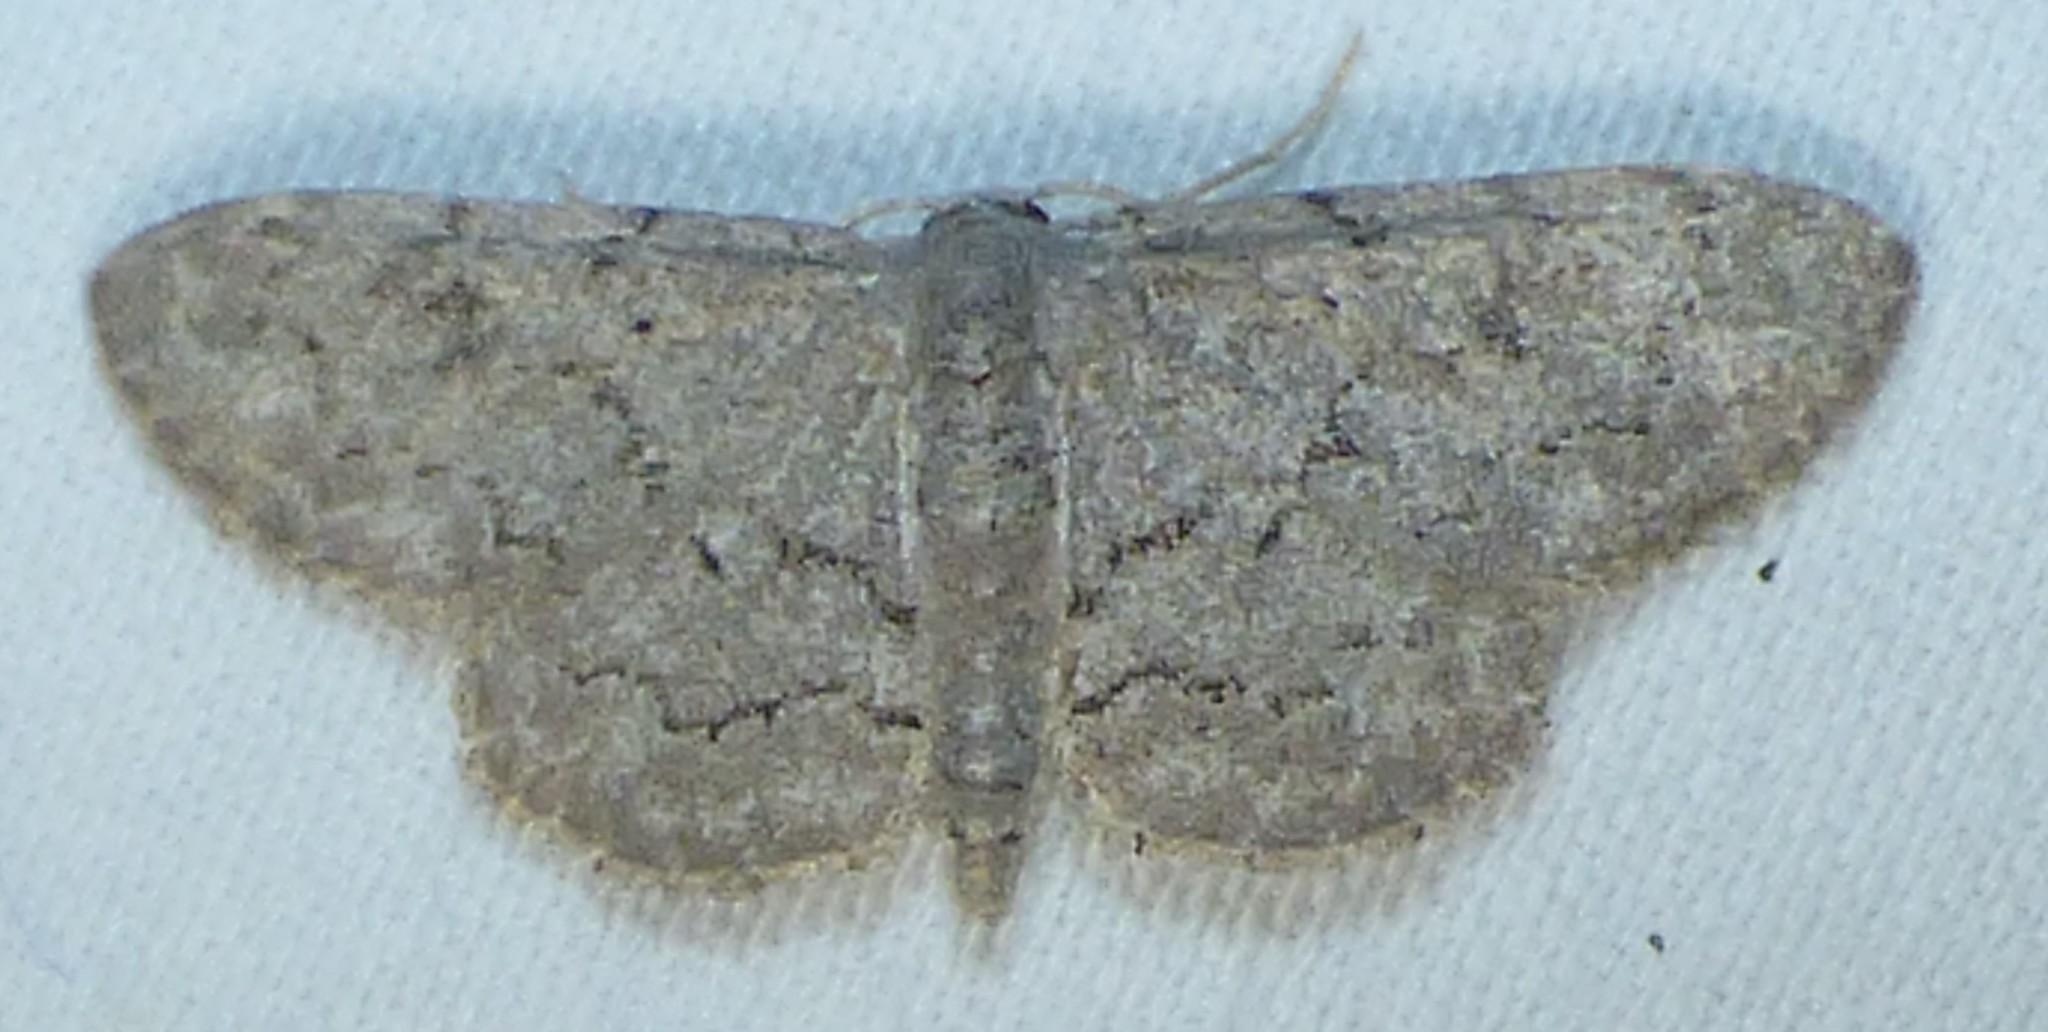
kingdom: Animalia
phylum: Arthropoda
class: Insecta
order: Lepidoptera
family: Geometridae
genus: Idaea
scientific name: Idaea violacearia
